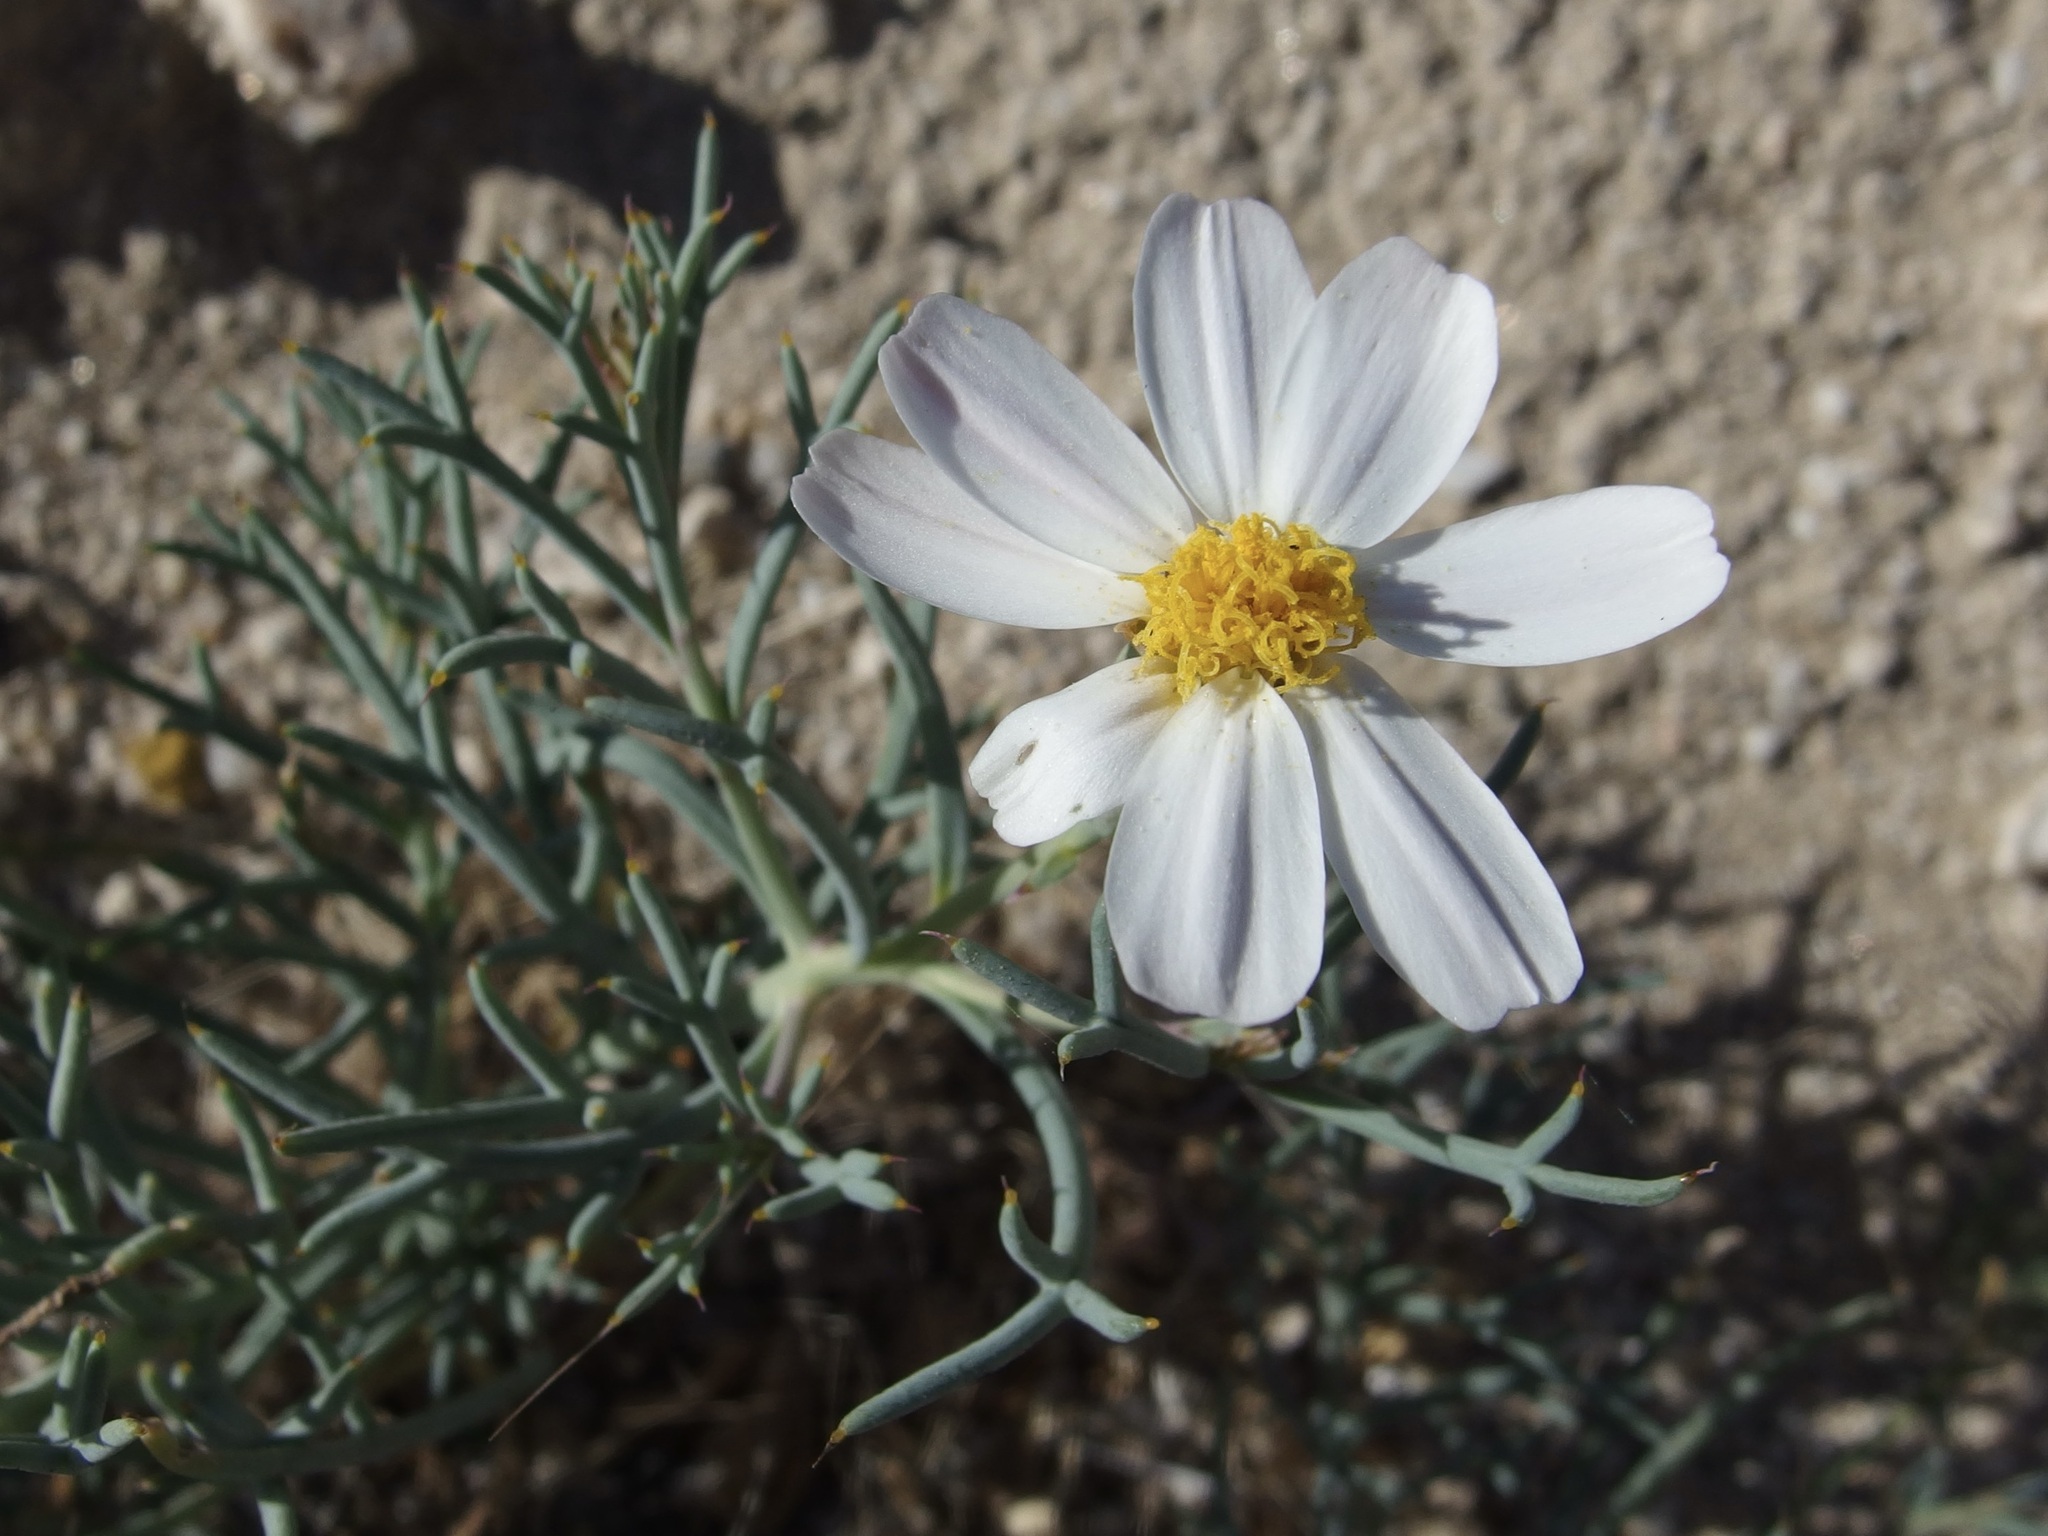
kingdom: Plantae
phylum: Tracheophyta
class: Magnoliopsida
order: Asterales
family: Asteraceae
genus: Nicolletia
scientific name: Nicolletia trifida
